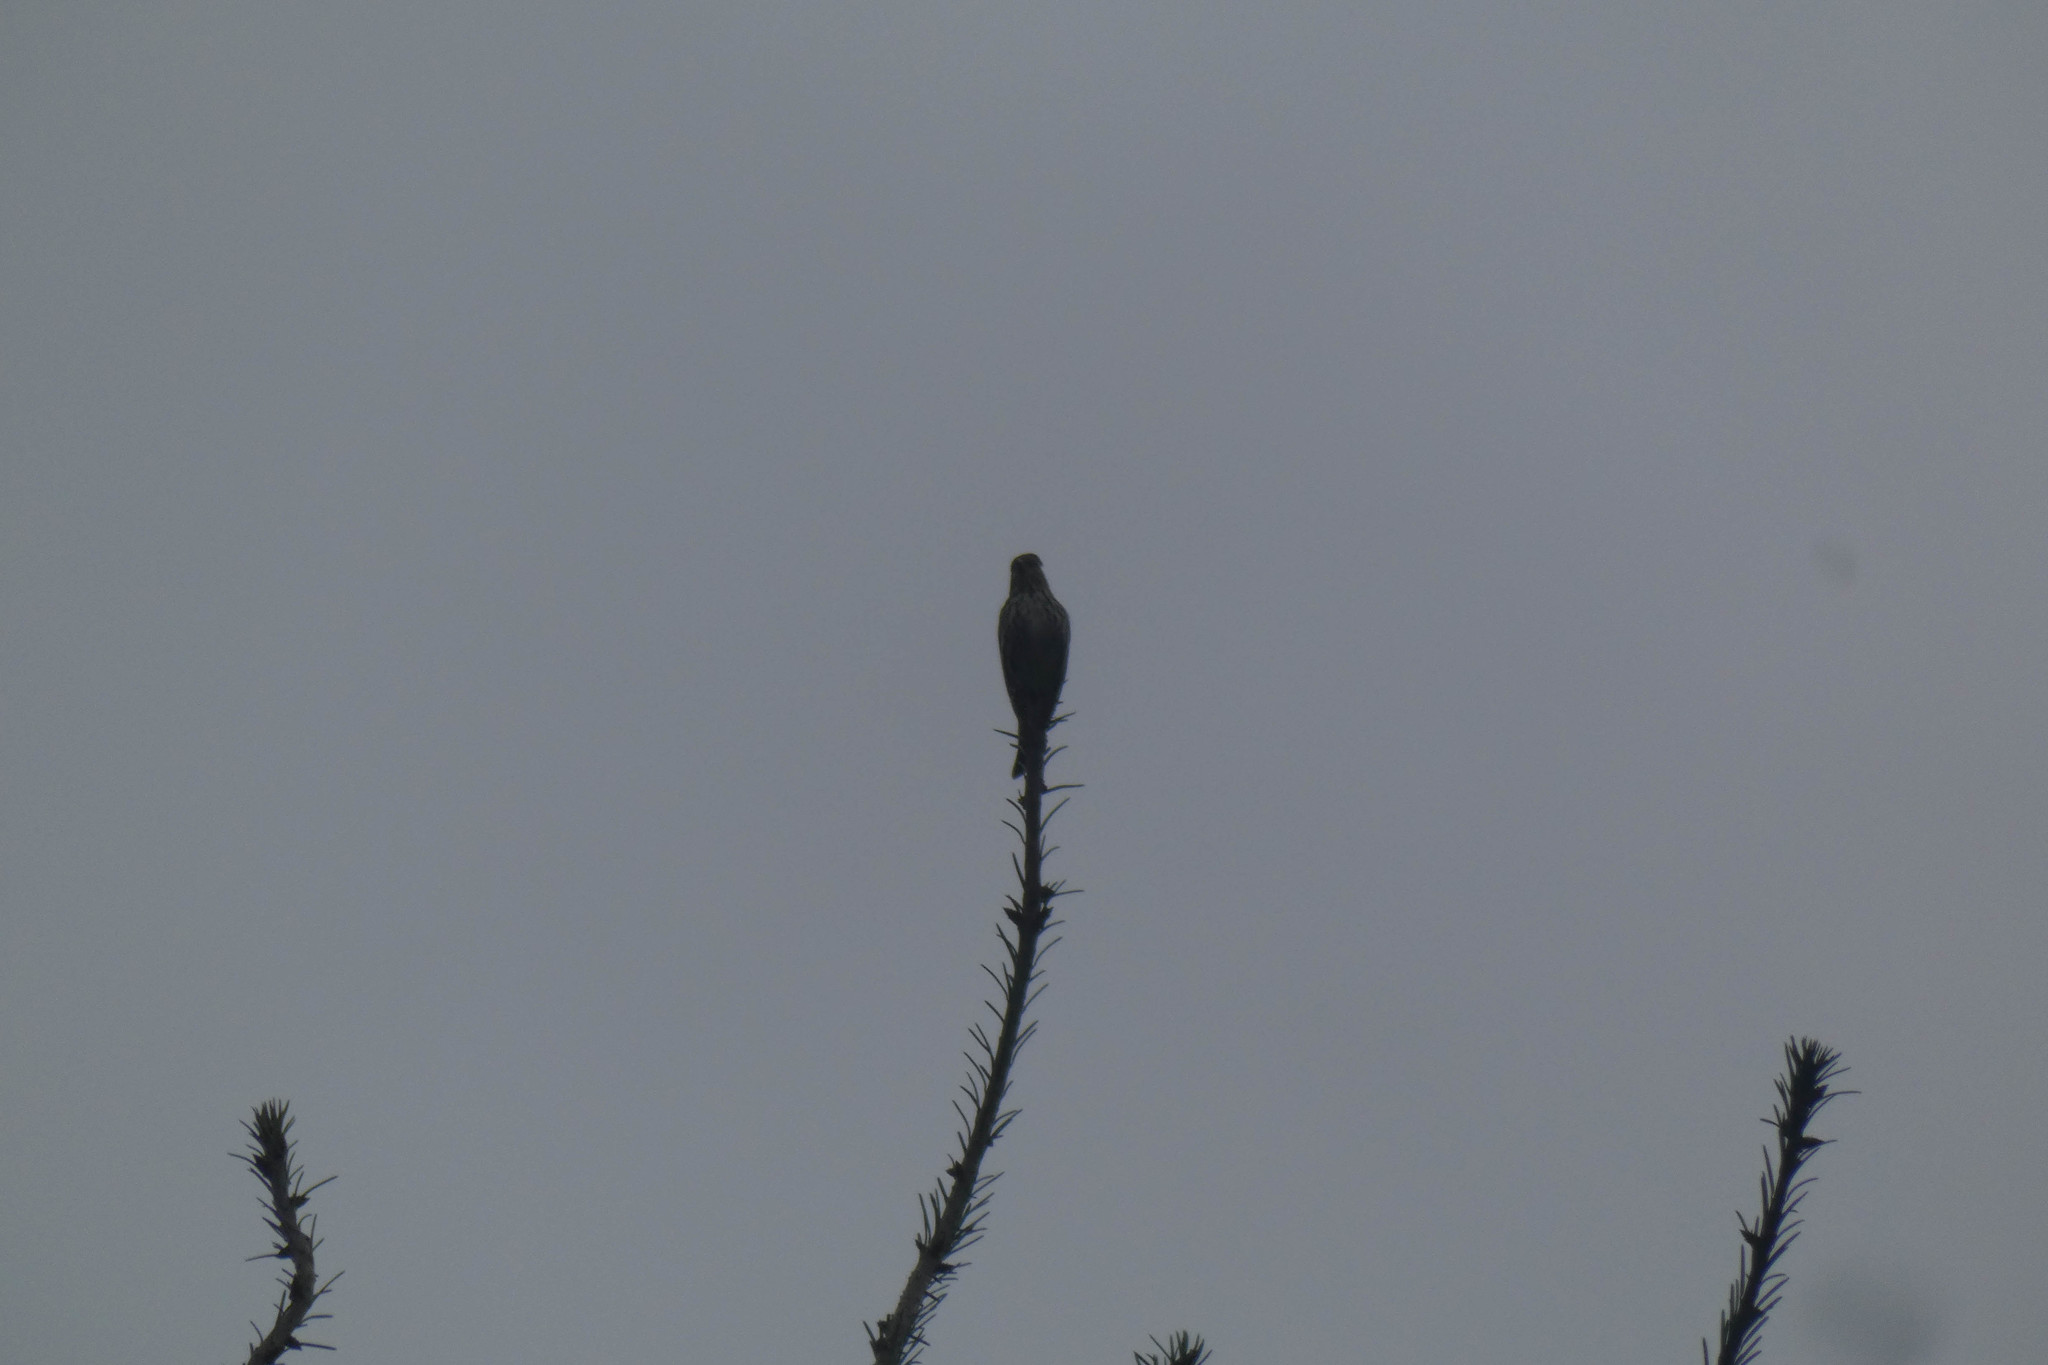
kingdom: Animalia
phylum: Chordata
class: Aves
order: Passeriformes
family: Fringillidae
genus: Spinus
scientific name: Spinus pinus
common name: Pine siskin
